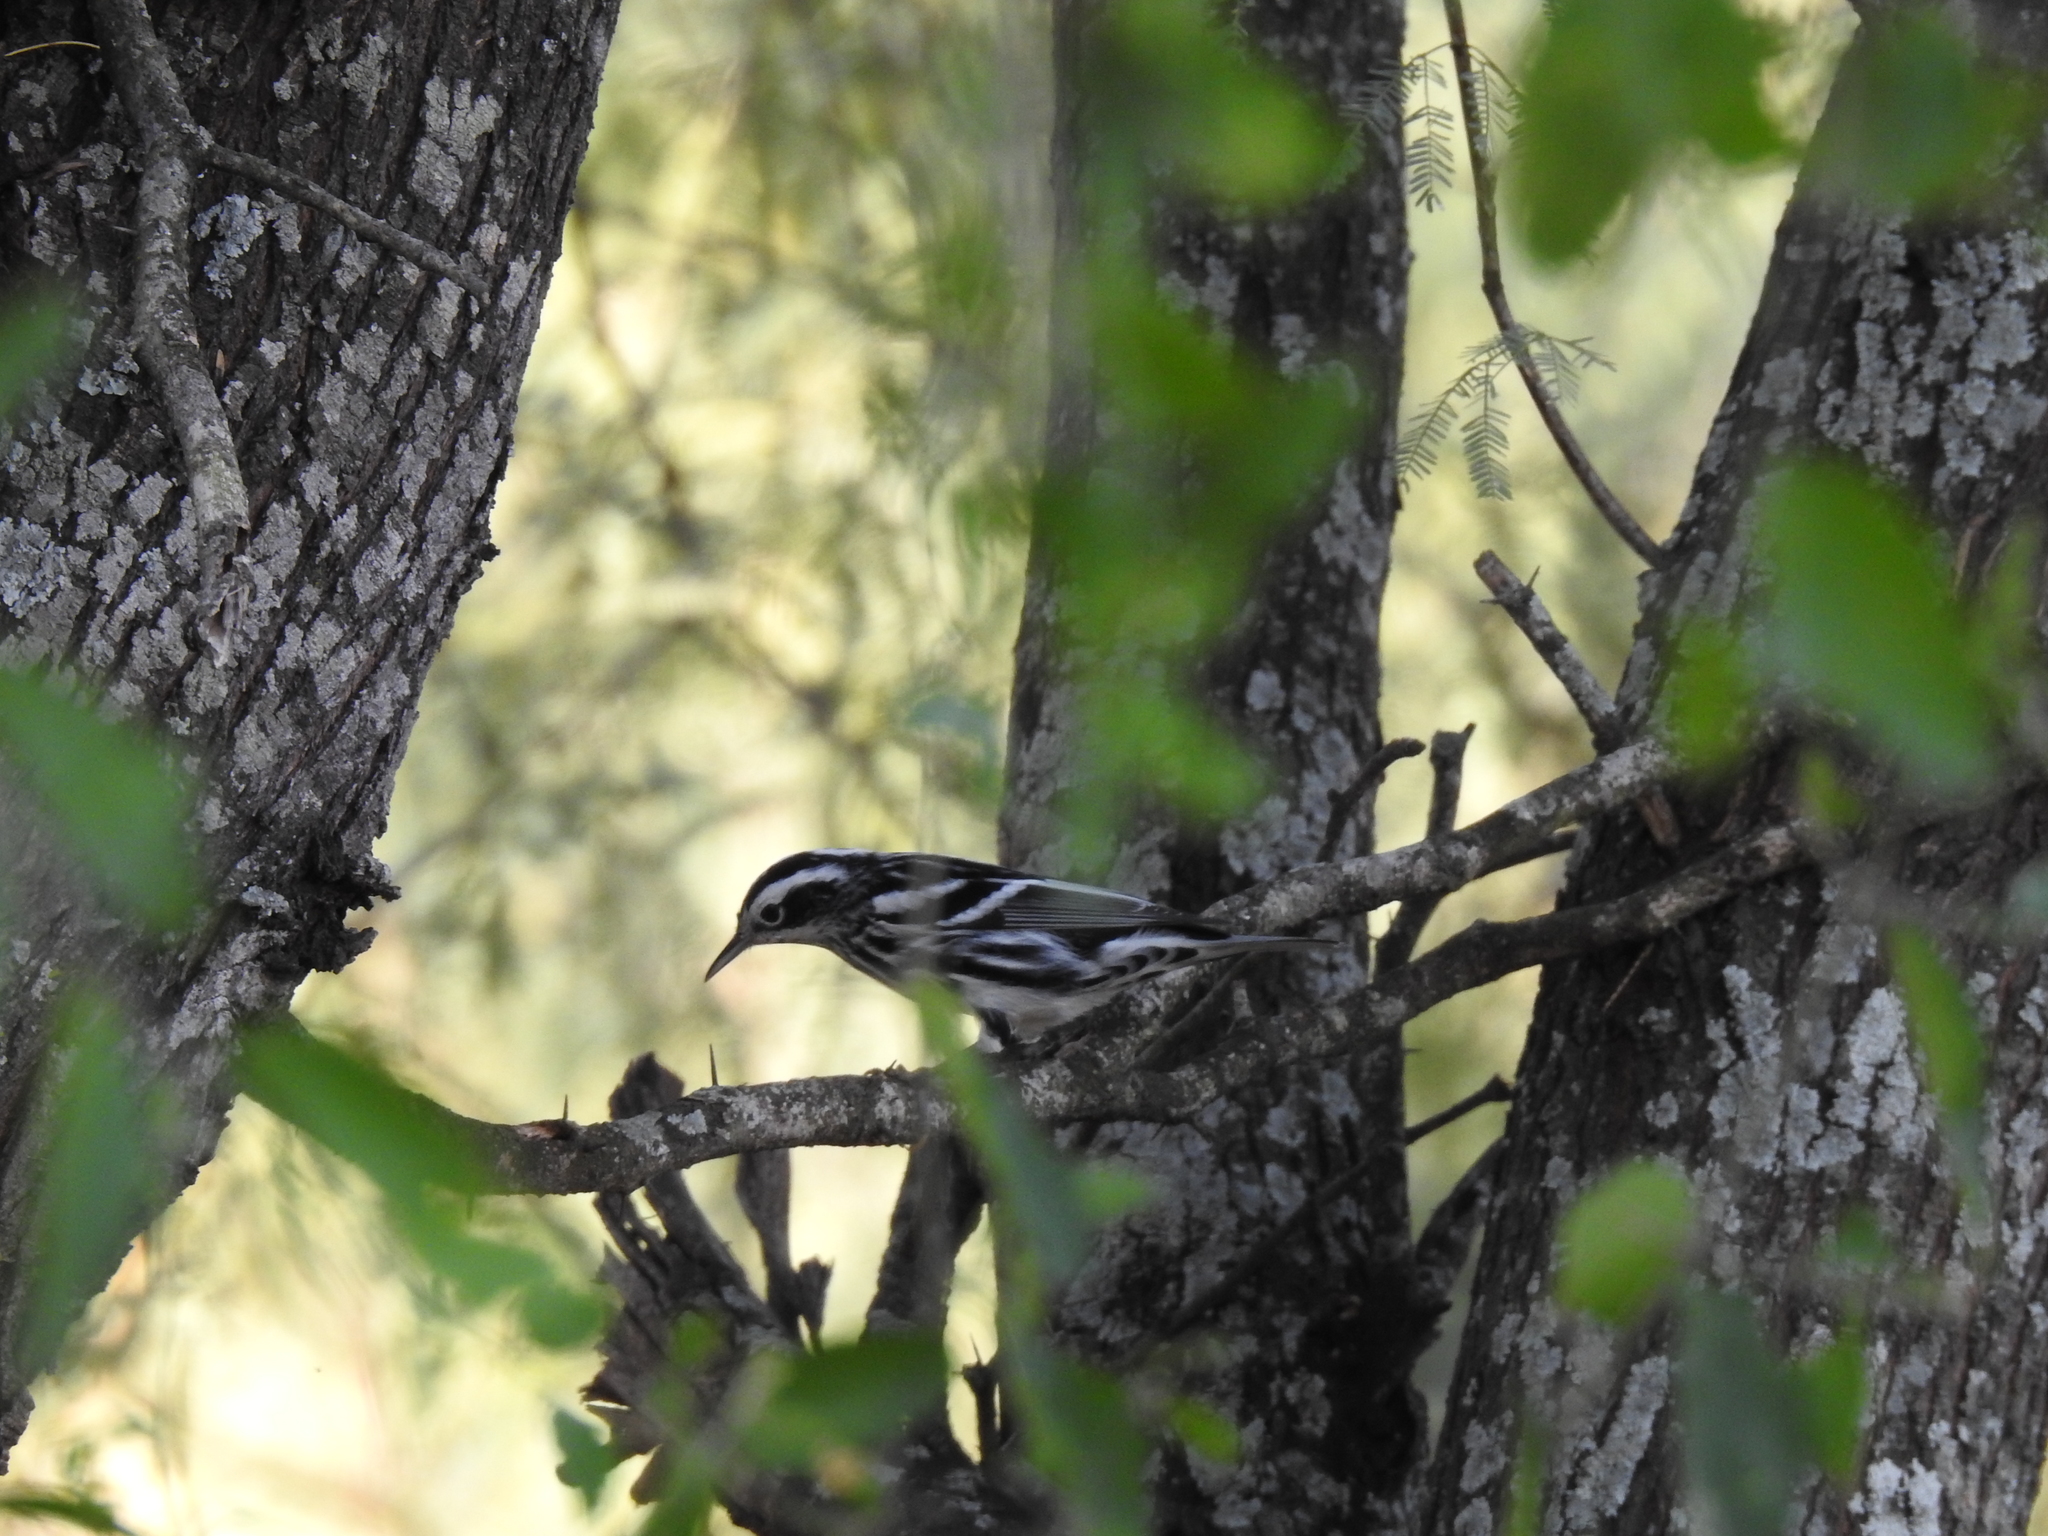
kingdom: Animalia
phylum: Chordata
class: Aves
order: Passeriformes
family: Parulidae
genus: Mniotilta
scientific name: Mniotilta varia
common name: Black-and-white warbler
